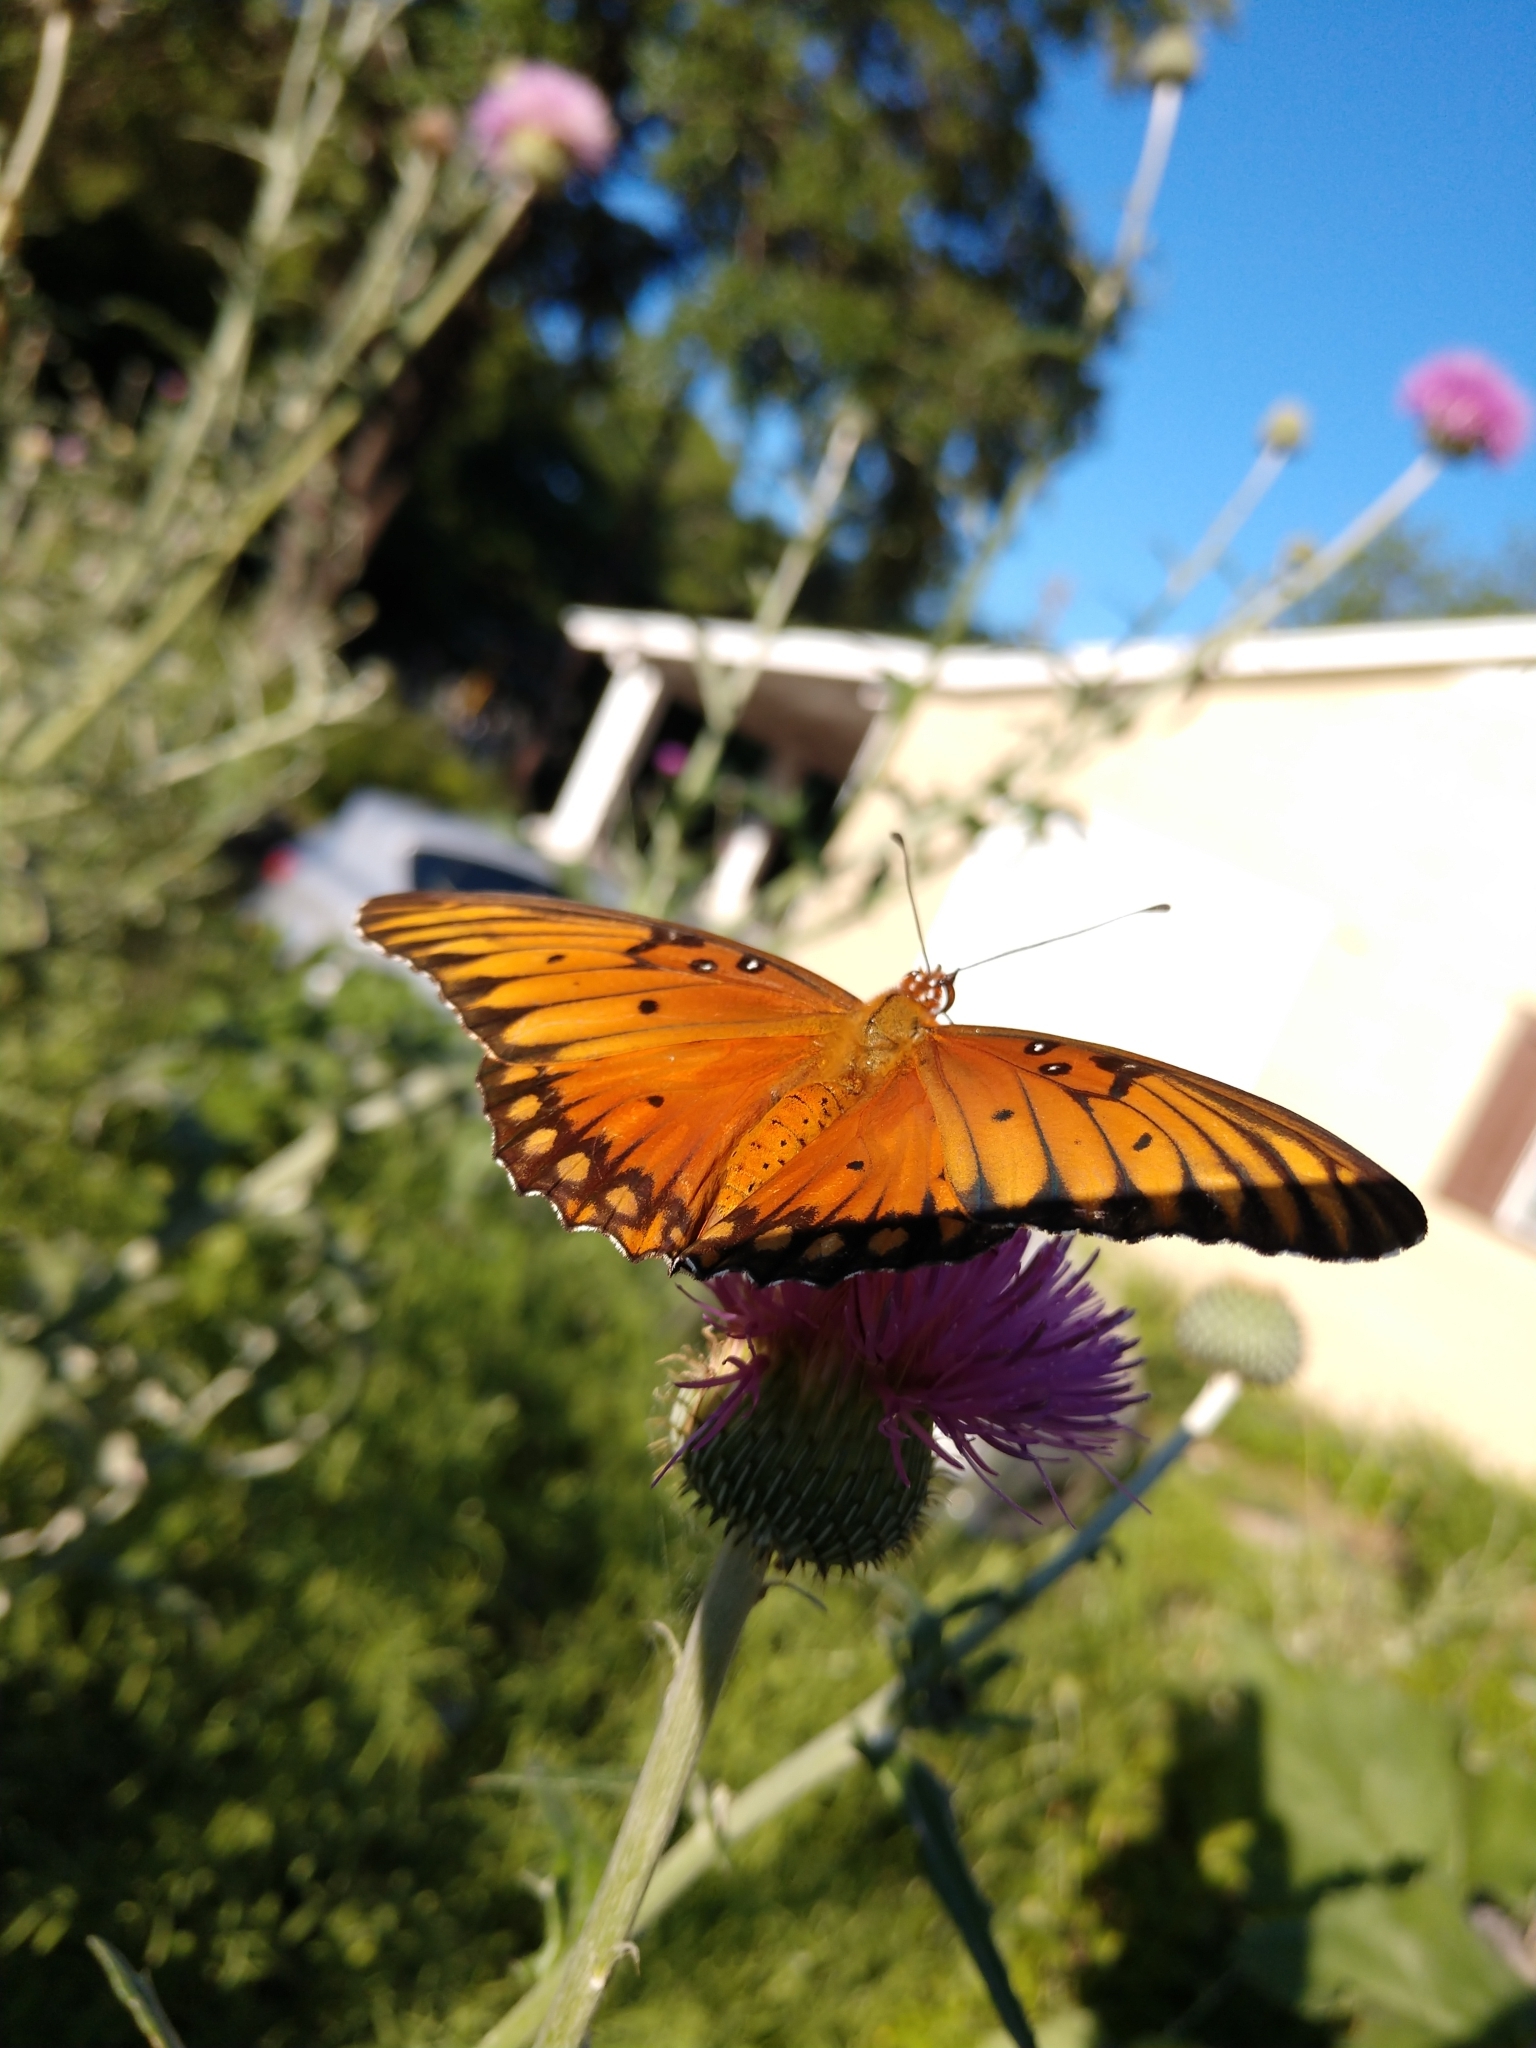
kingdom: Animalia
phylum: Arthropoda
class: Insecta
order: Lepidoptera
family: Nymphalidae
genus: Dione
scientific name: Dione vanillae
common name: Gulf fritillary
